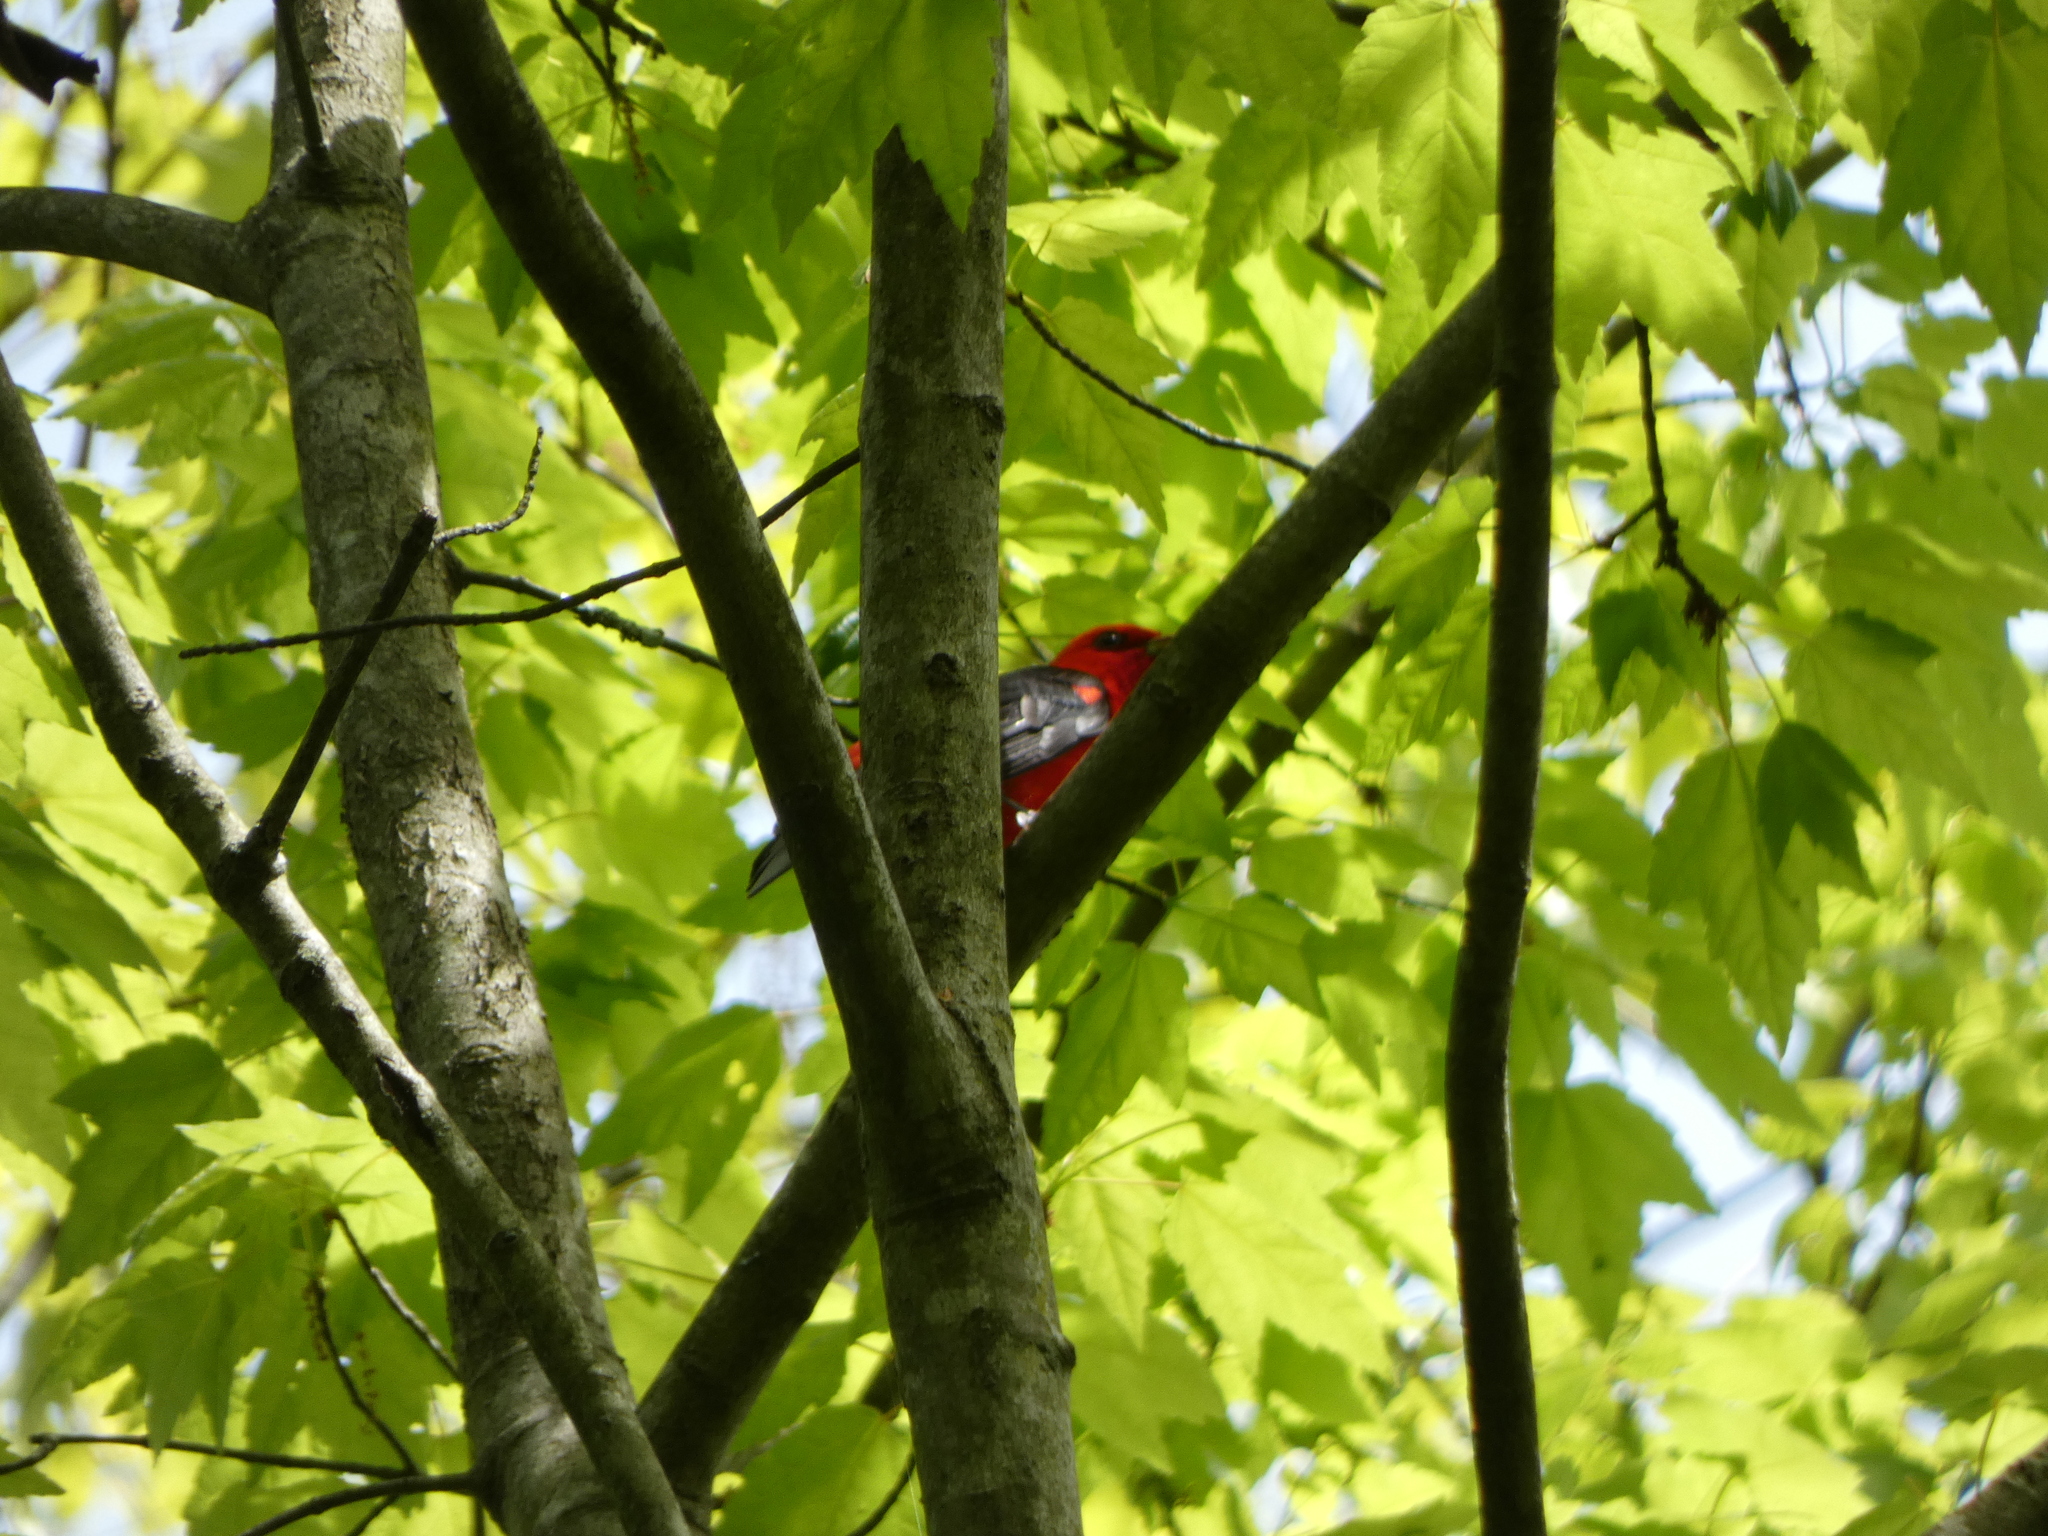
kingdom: Animalia
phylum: Chordata
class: Aves
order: Passeriformes
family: Cardinalidae
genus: Piranga
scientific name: Piranga olivacea
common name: Scarlet tanager
